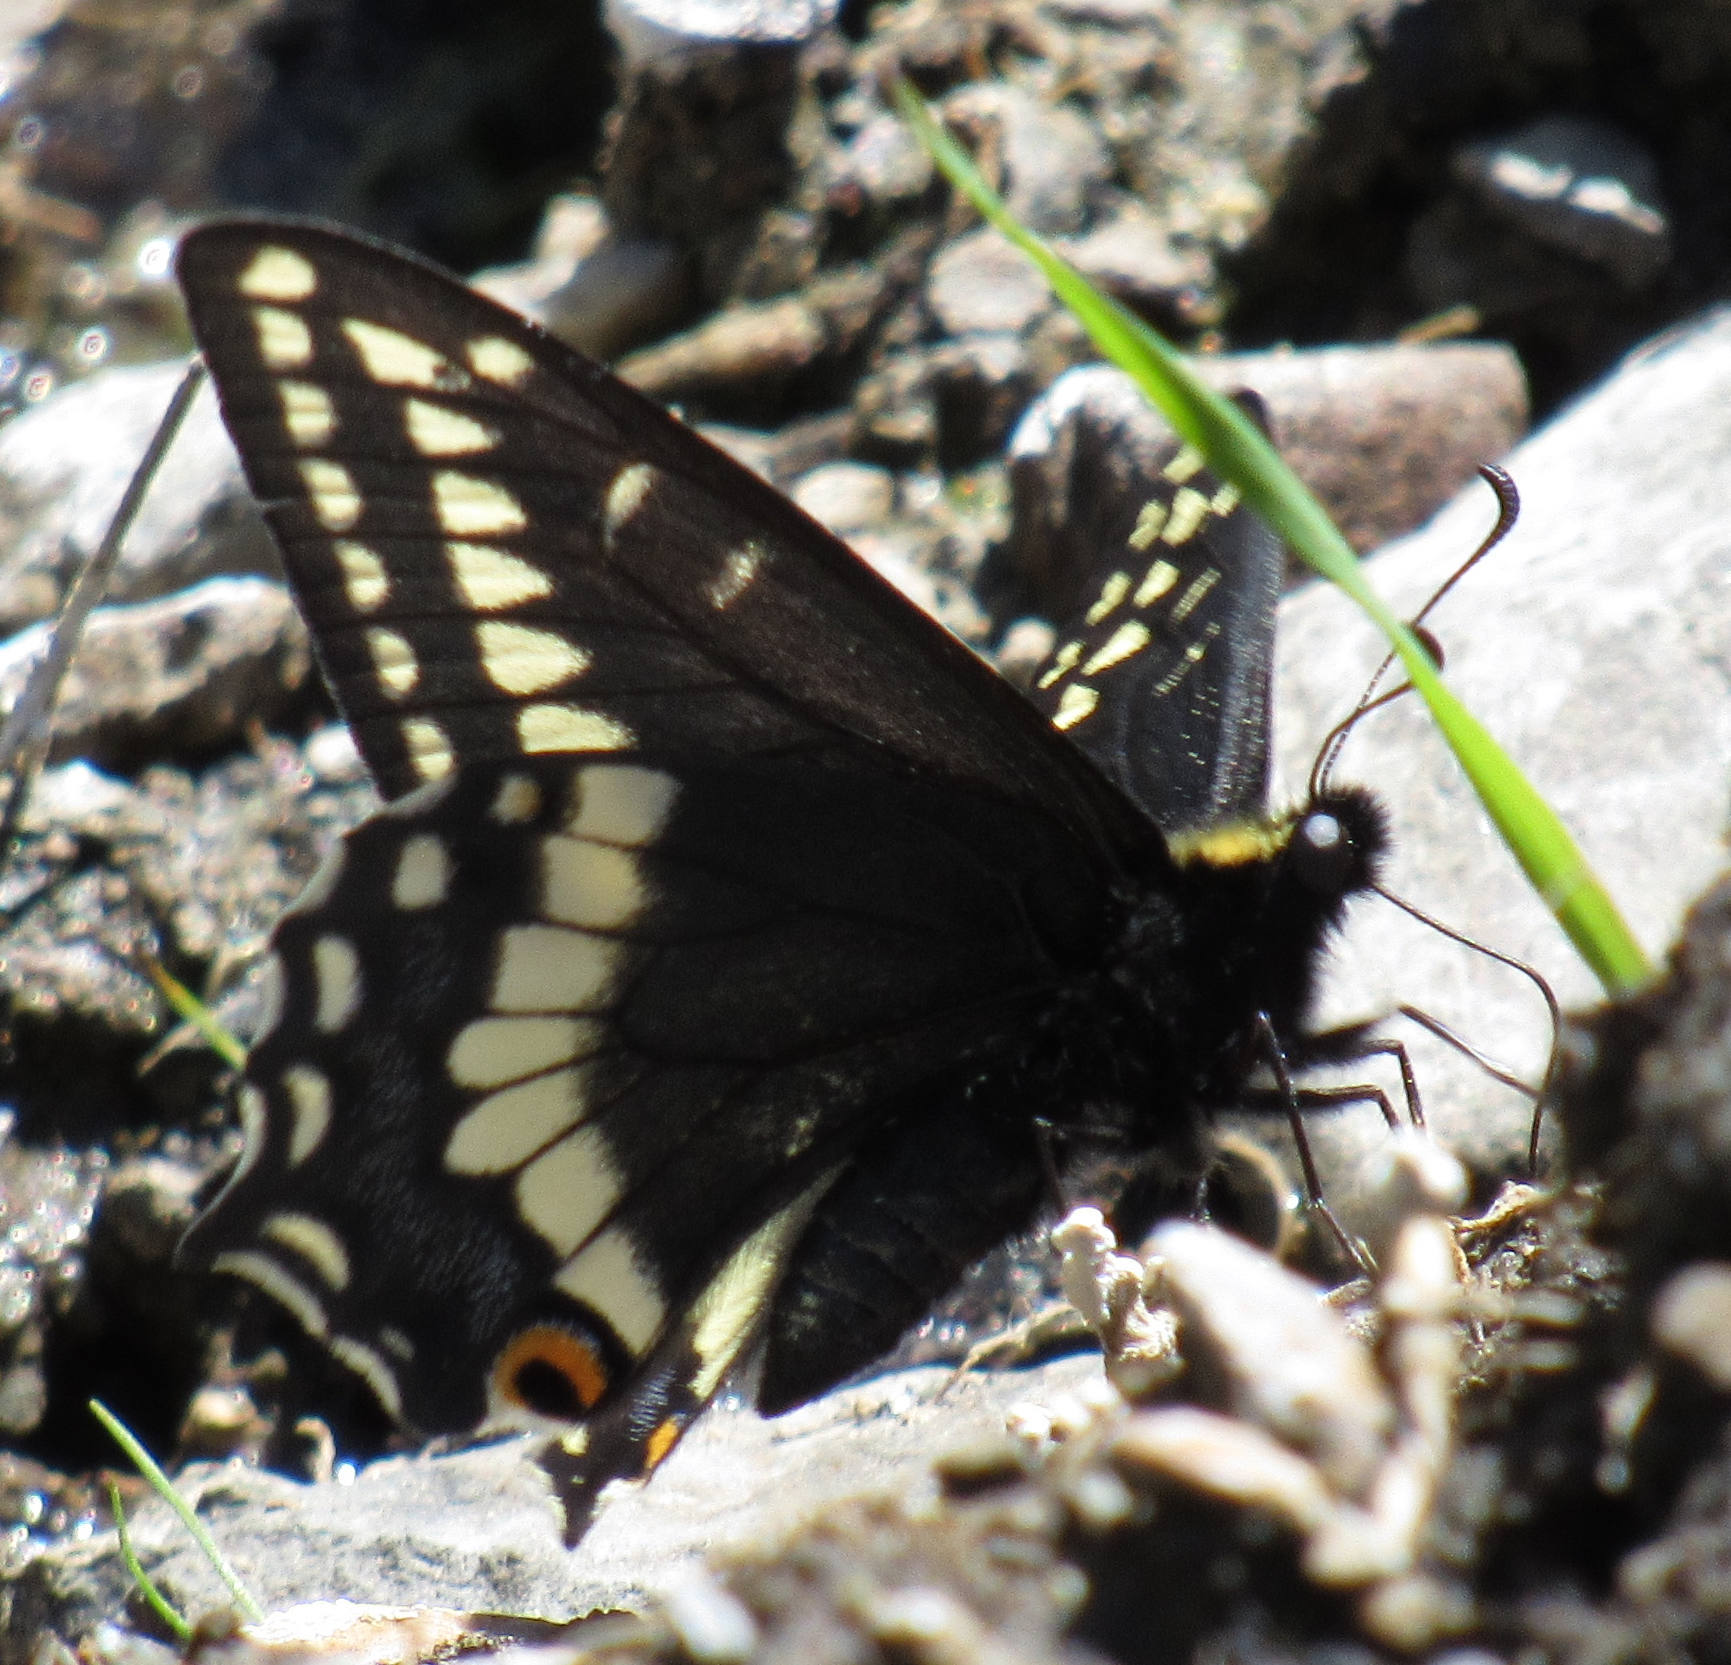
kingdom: Animalia
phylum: Arthropoda
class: Insecta
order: Lepidoptera
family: Papilionidae
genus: Papilio
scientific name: Papilio indra
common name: Cliff swallowtail
